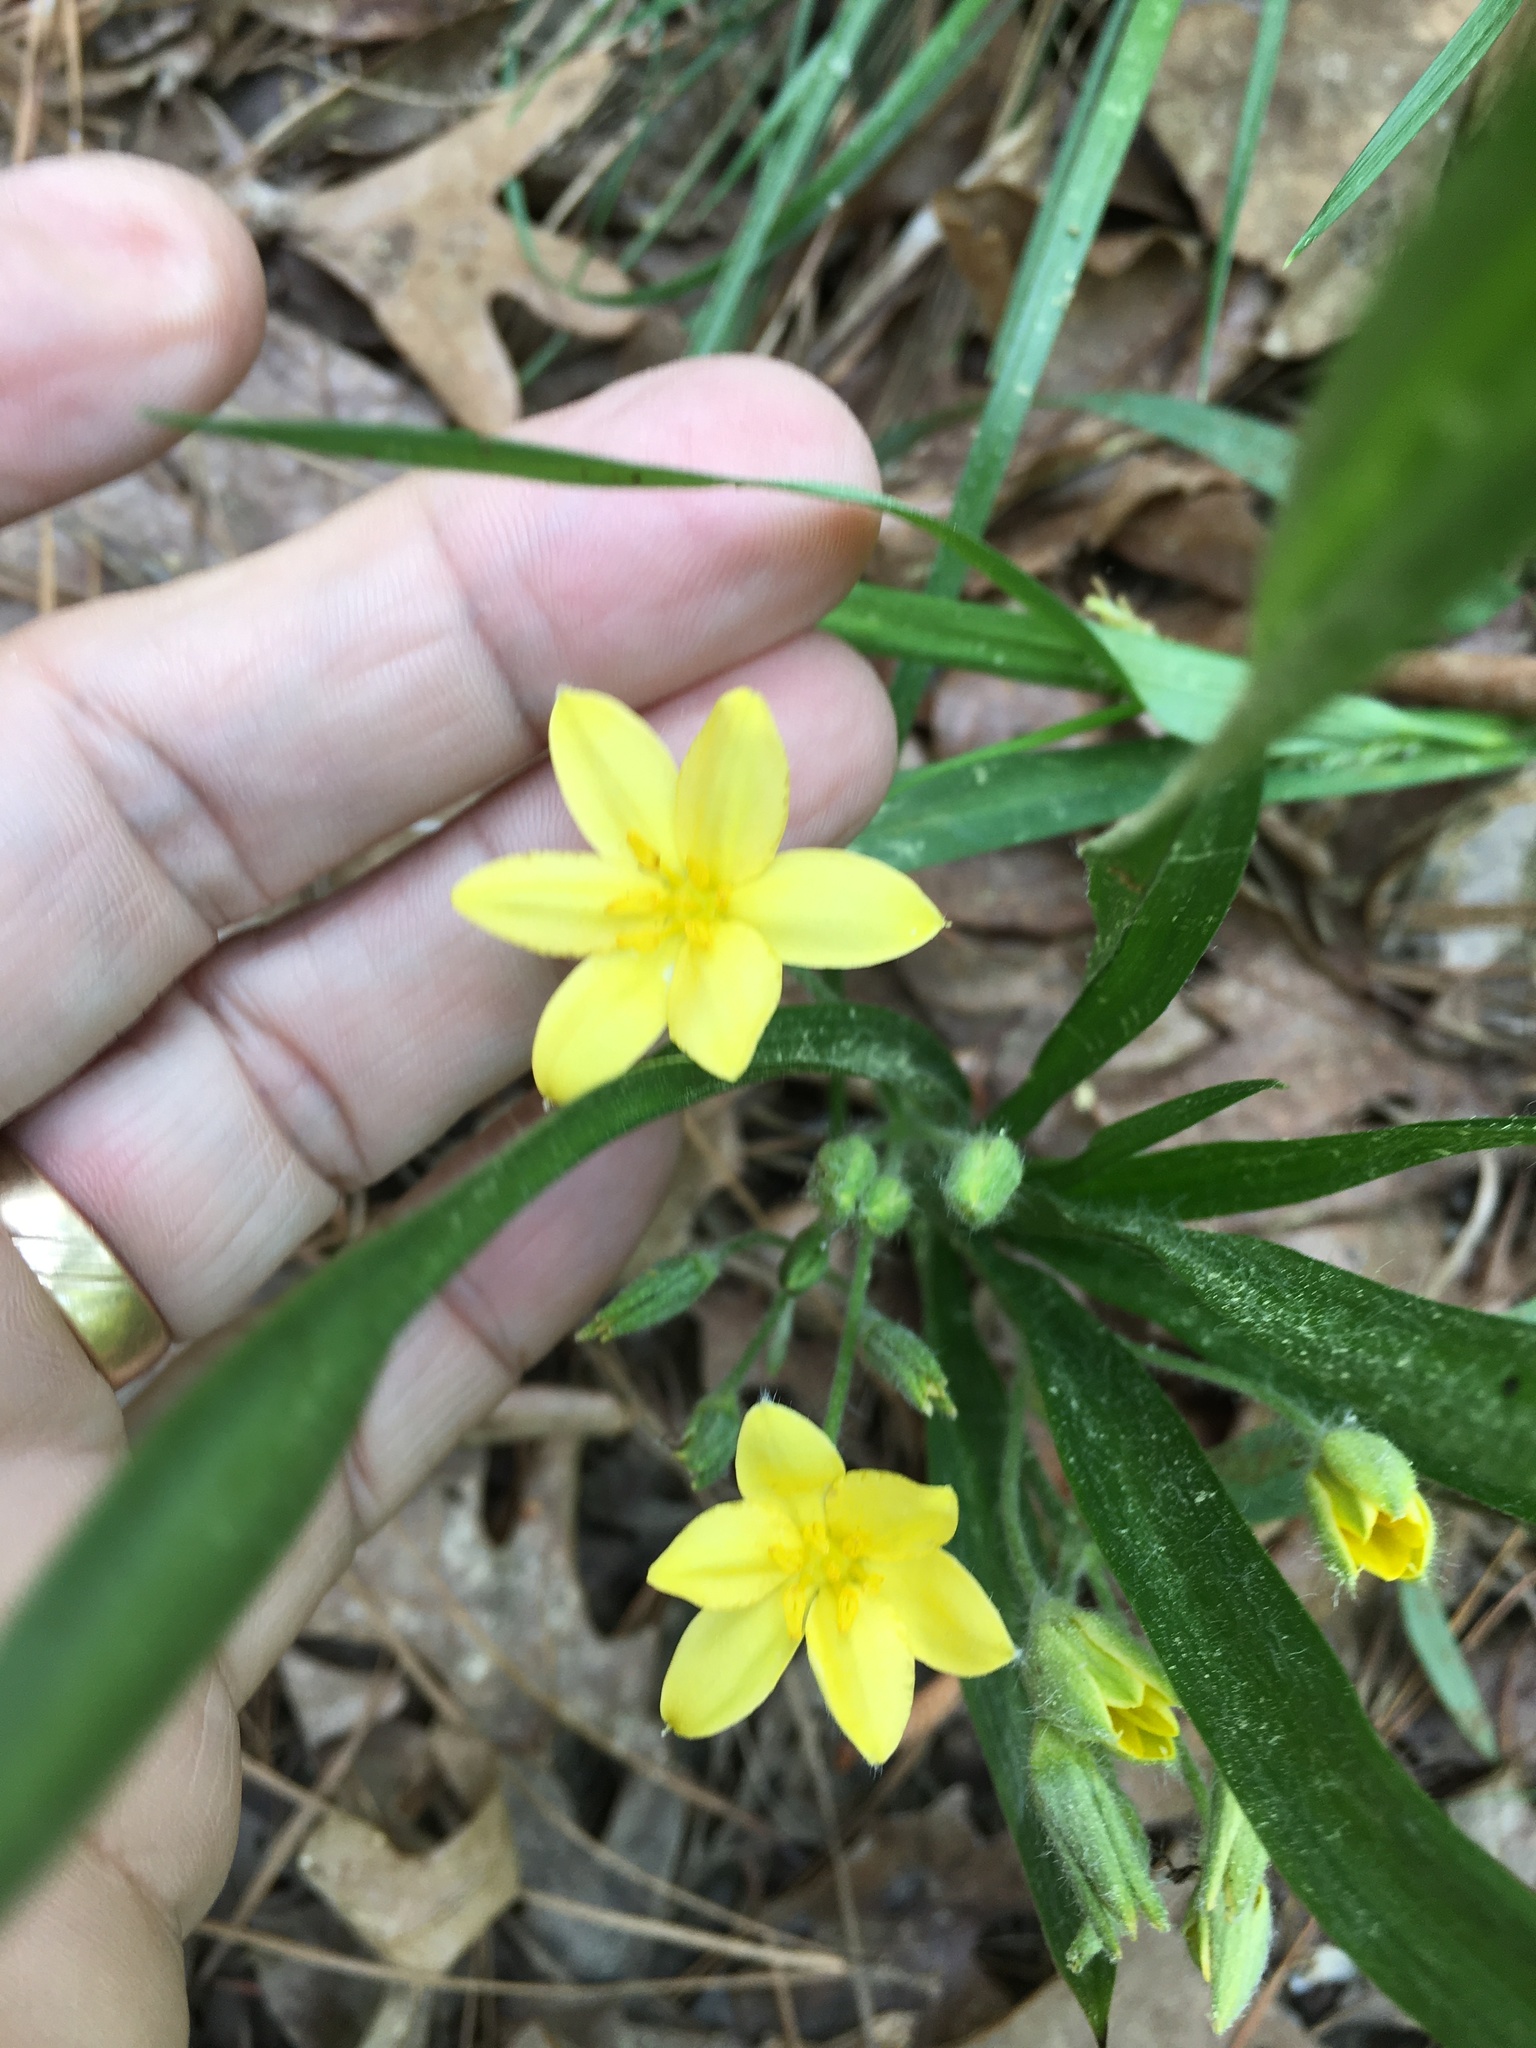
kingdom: Plantae
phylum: Tracheophyta
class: Liliopsida
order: Asparagales
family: Hypoxidaceae
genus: Hypoxis
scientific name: Hypoxis hirsuta
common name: Common goldstar
